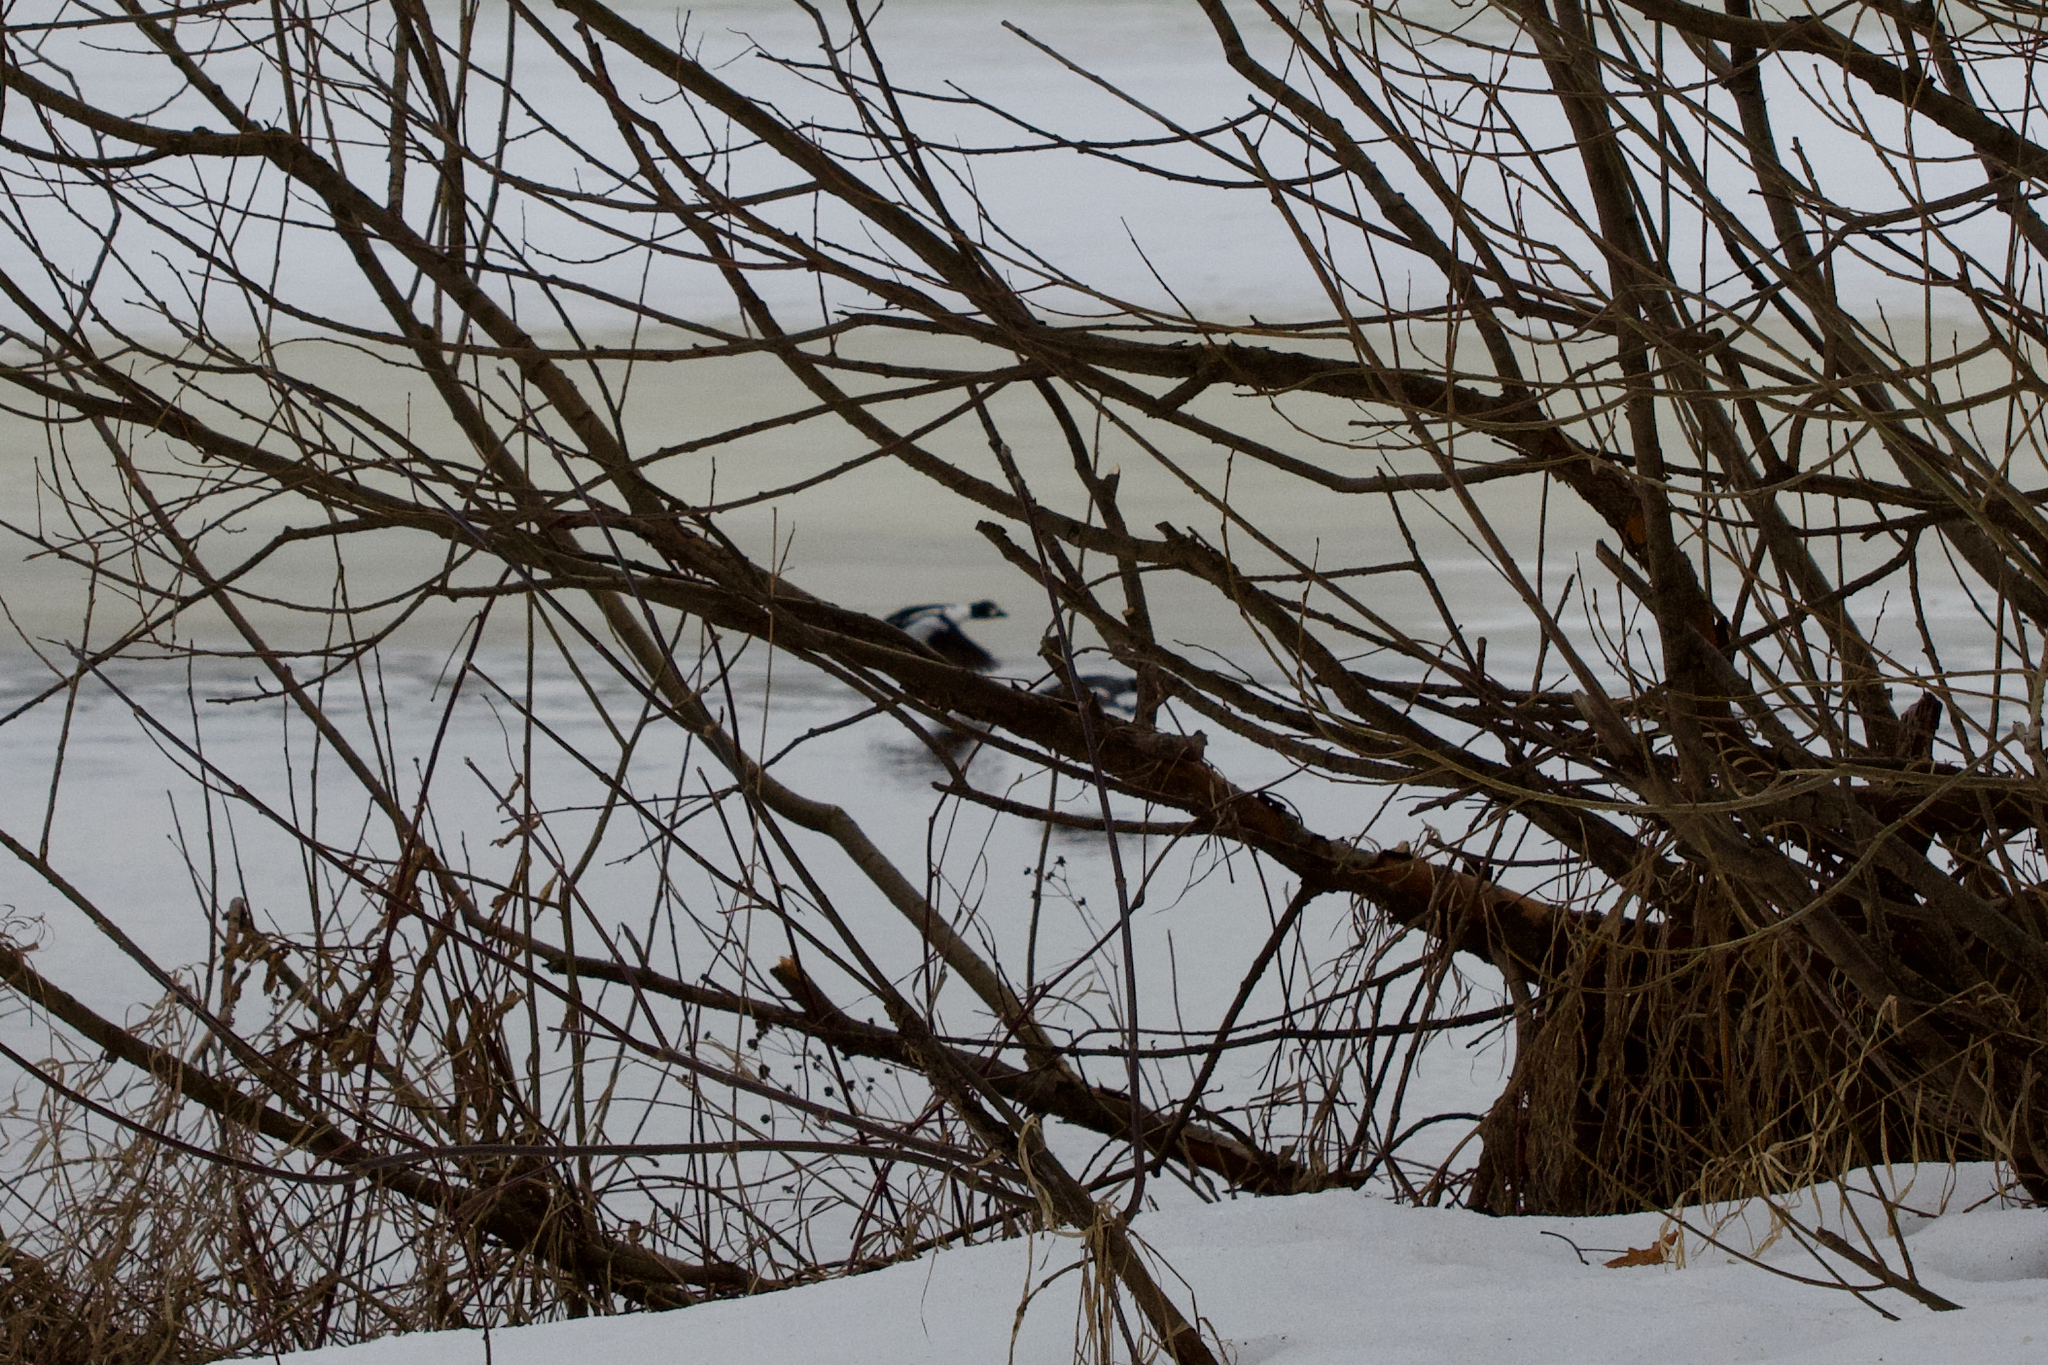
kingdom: Animalia
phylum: Chordata
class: Aves
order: Anseriformes
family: Anatidae
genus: Bucephala
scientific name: Bucephala clangula
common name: Common goldeneye
